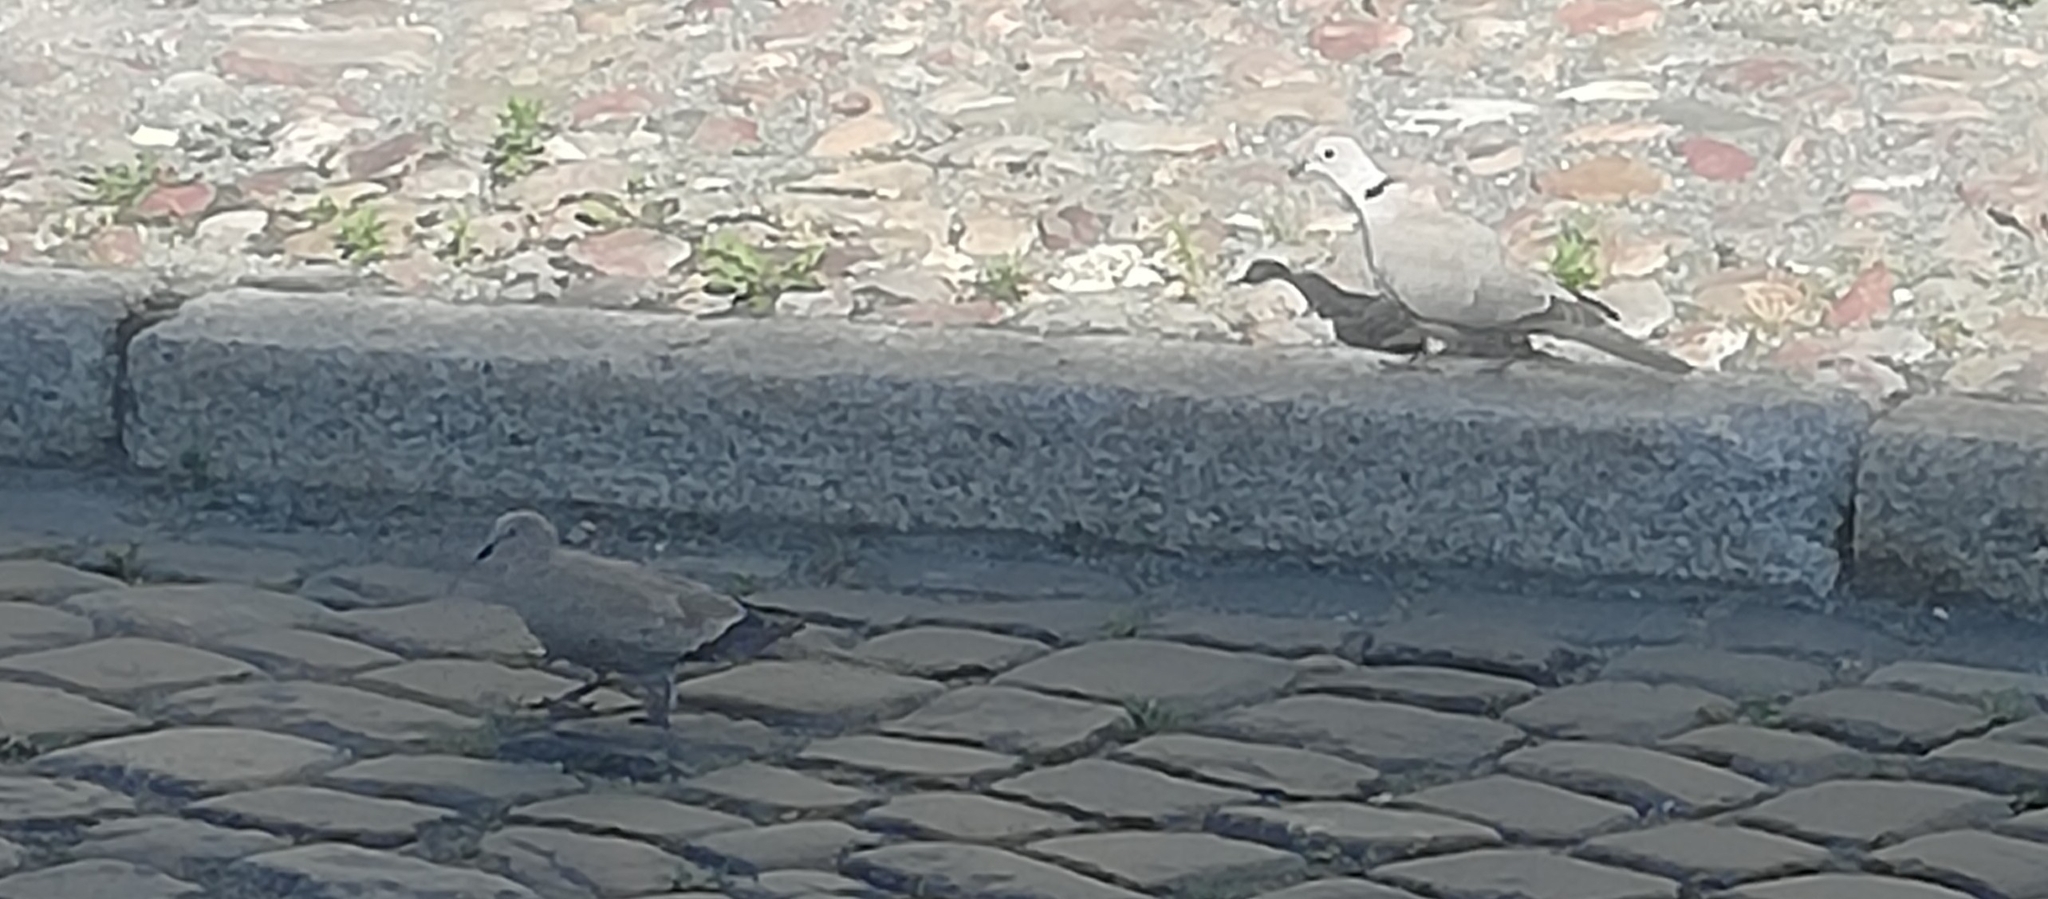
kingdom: Animalia
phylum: Chordata
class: Aves
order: Columbiformes
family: Columbidae
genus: Streptopelia
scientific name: Streptopelia decaocto
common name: Eurasian collared dove
